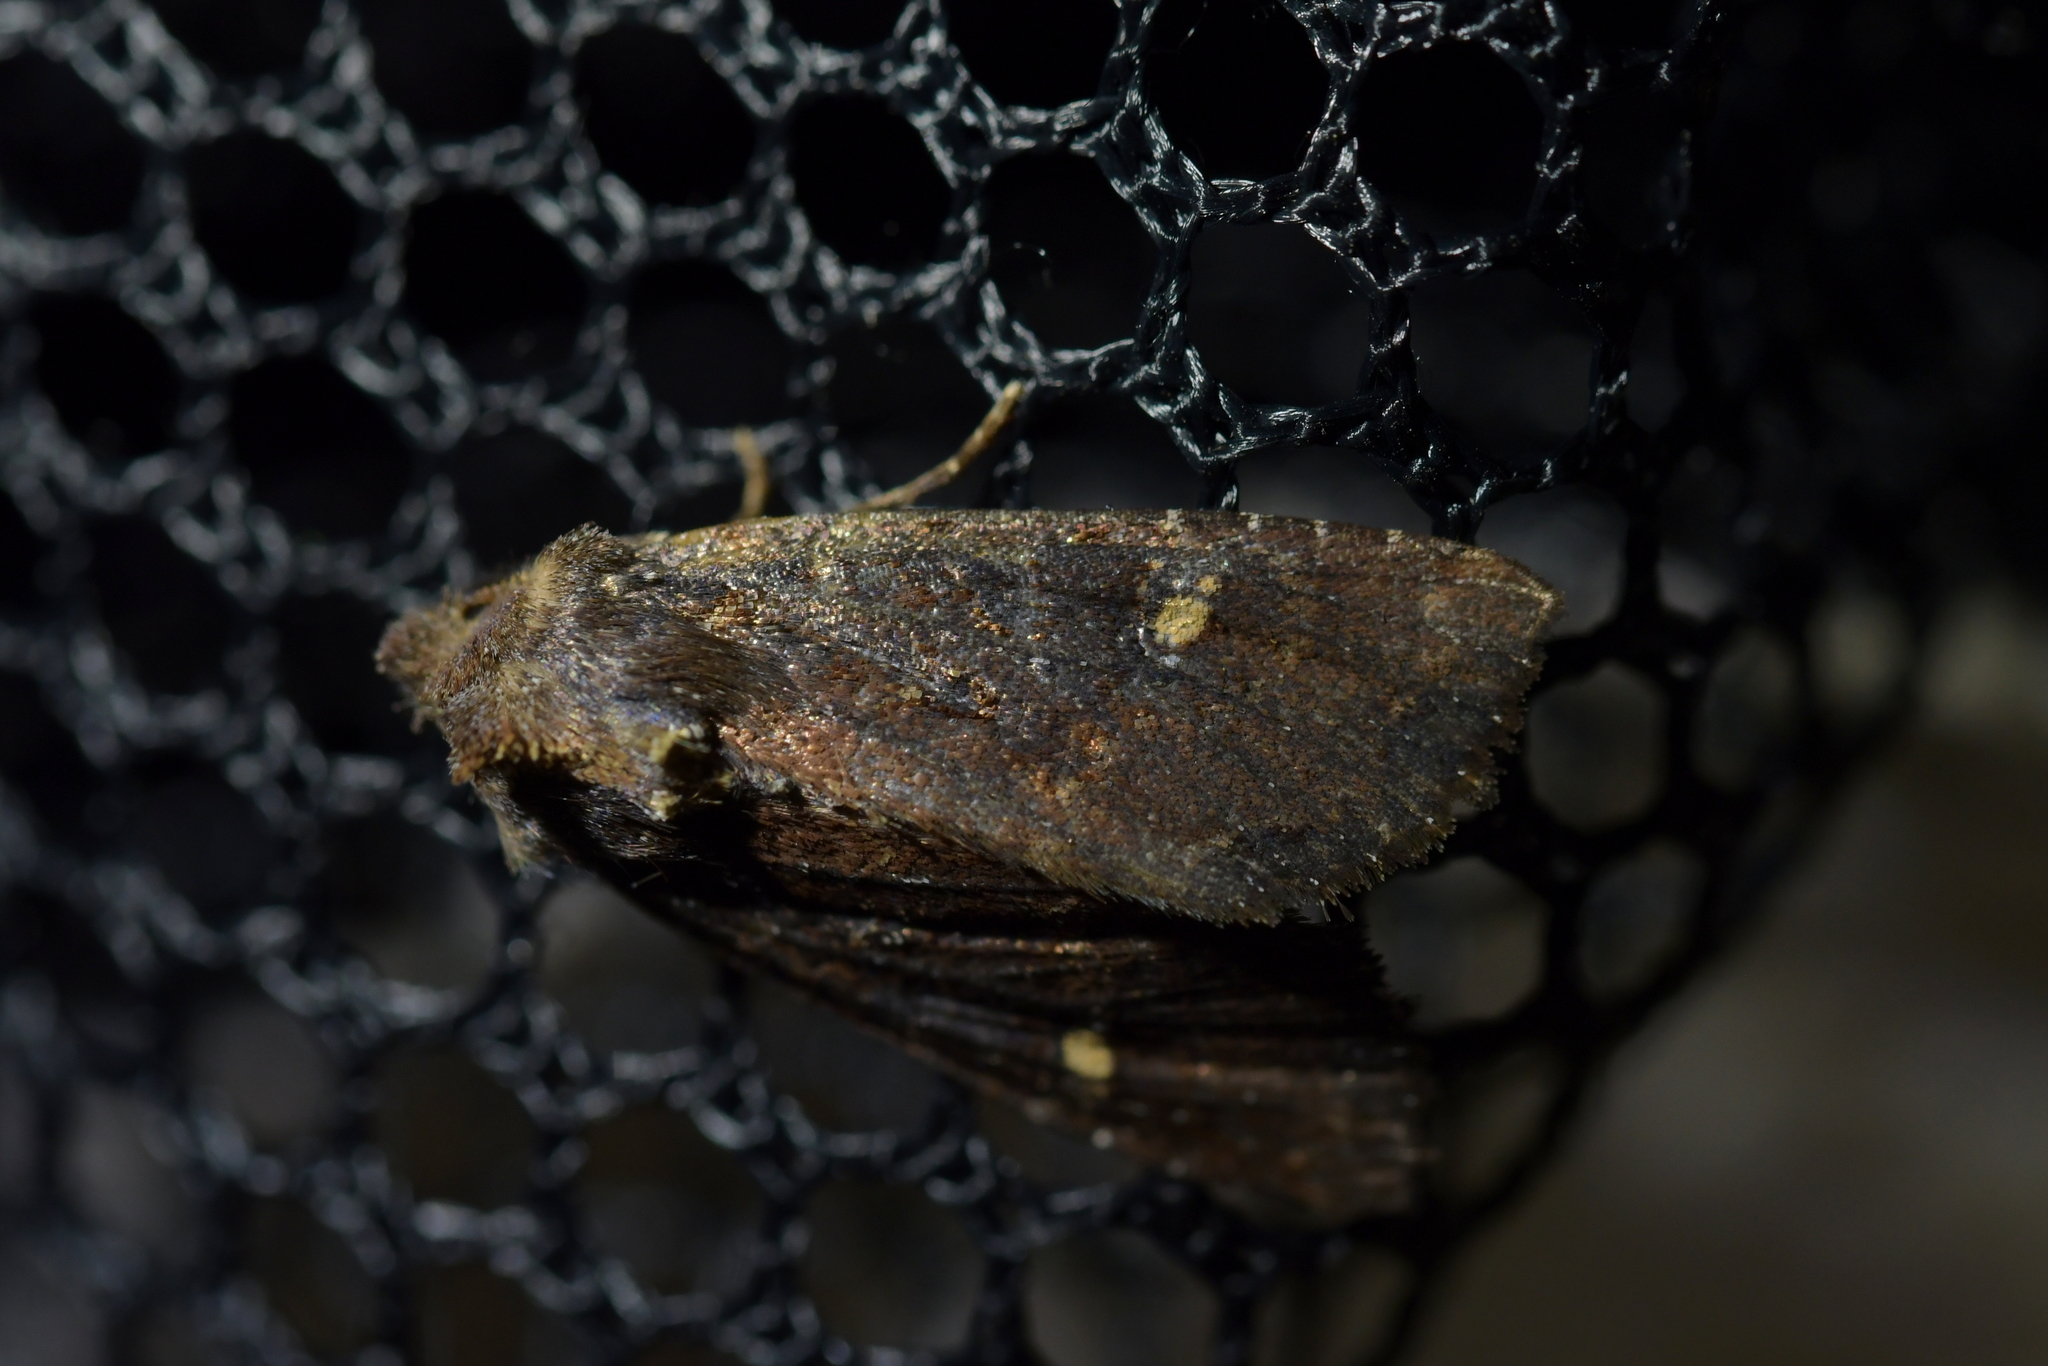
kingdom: Animalia
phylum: Arthropoda
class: Insecta
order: Lepidoptera
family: Noctuidae
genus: Meterana
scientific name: Meterana vitiosa
